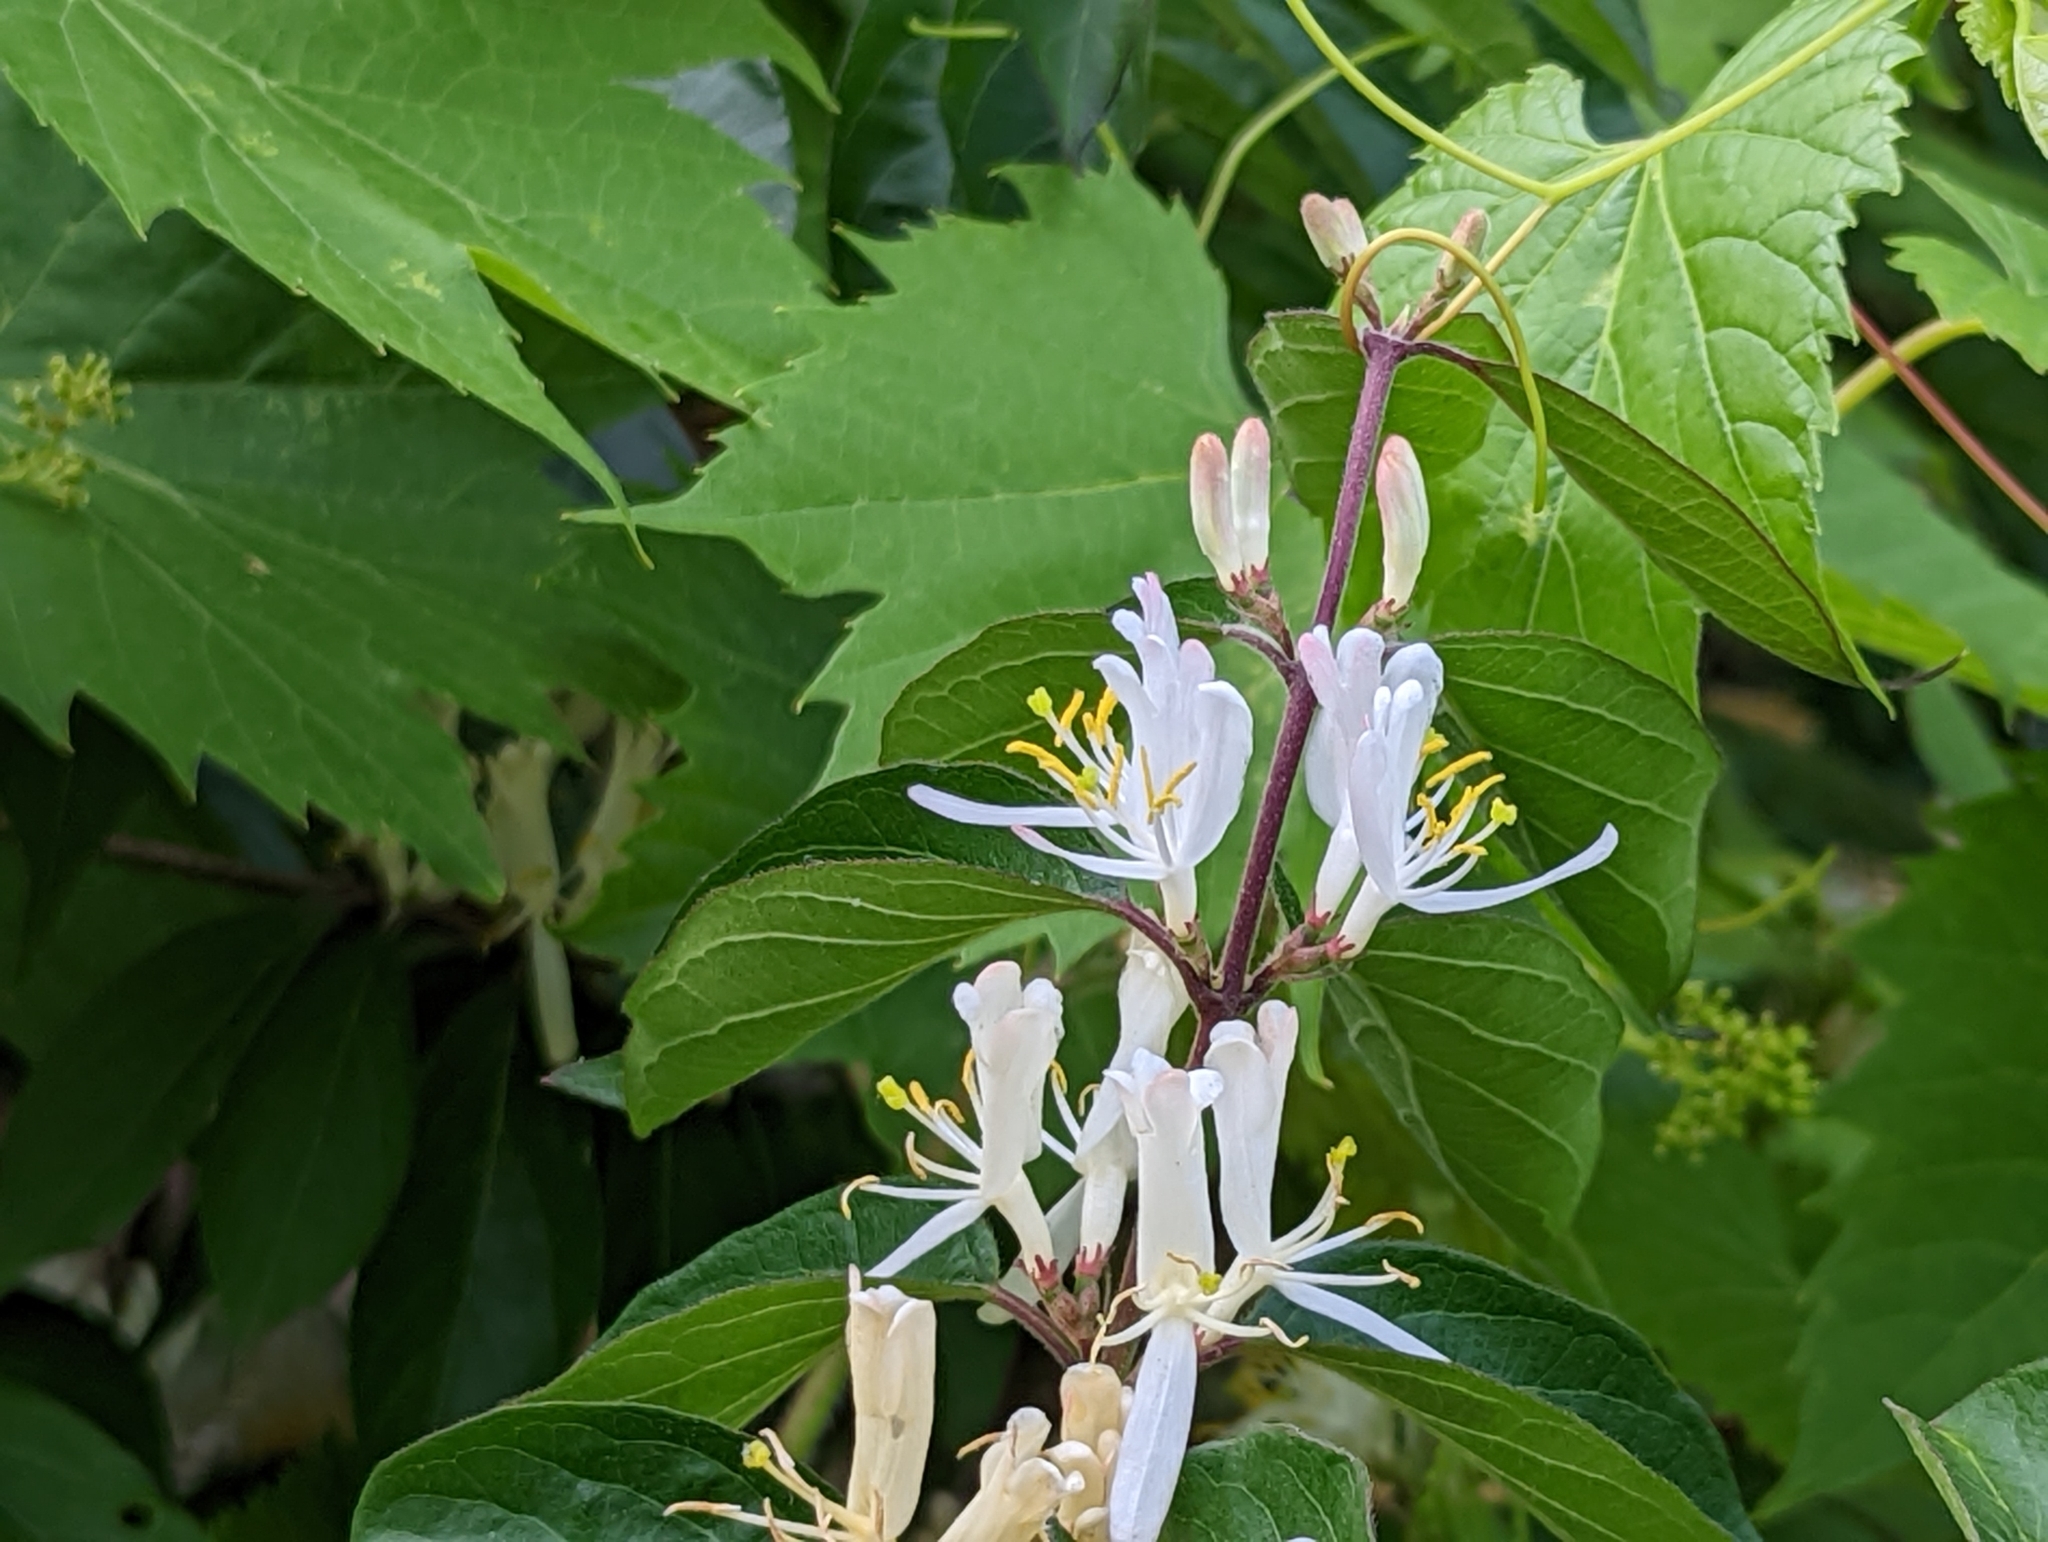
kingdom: Plantae
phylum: Tracheophyta
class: Magnoliopsida
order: Dipsacales
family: Caprifoliaceae
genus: Lonicera
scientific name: Lonicera maackii
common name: Amur honeysuckle
